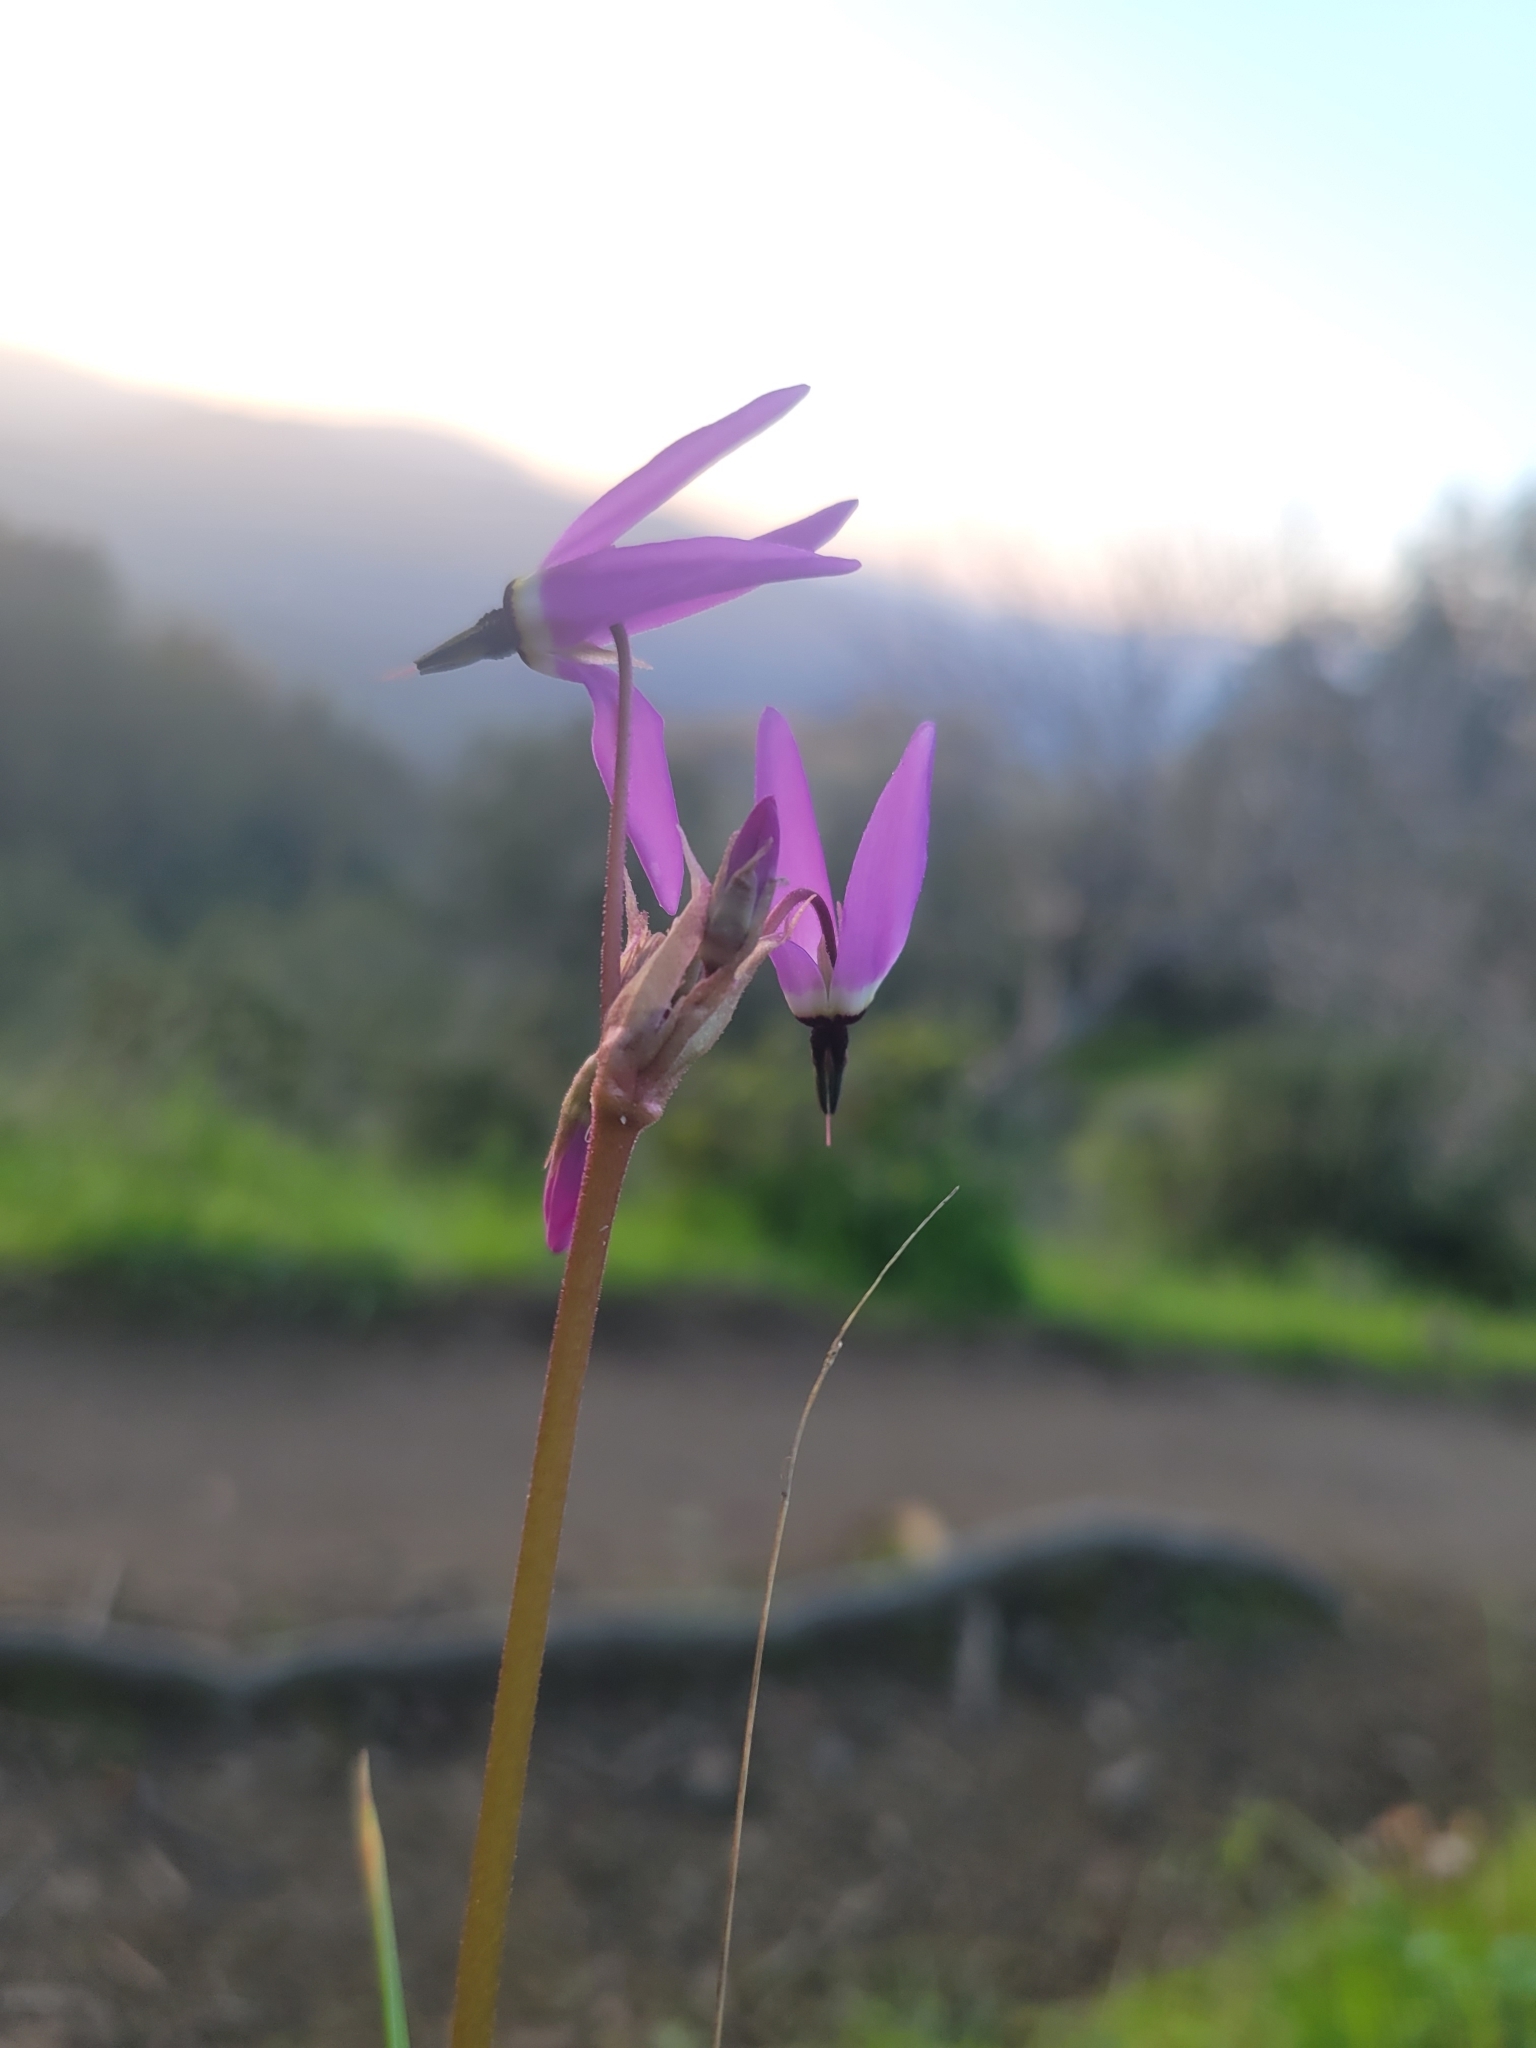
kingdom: Plantae
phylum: Tracheophyta
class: Magnoliopsida
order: Ericales
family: Primulaceae
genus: Dodecatheon
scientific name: Dodecatheon hendersonii
